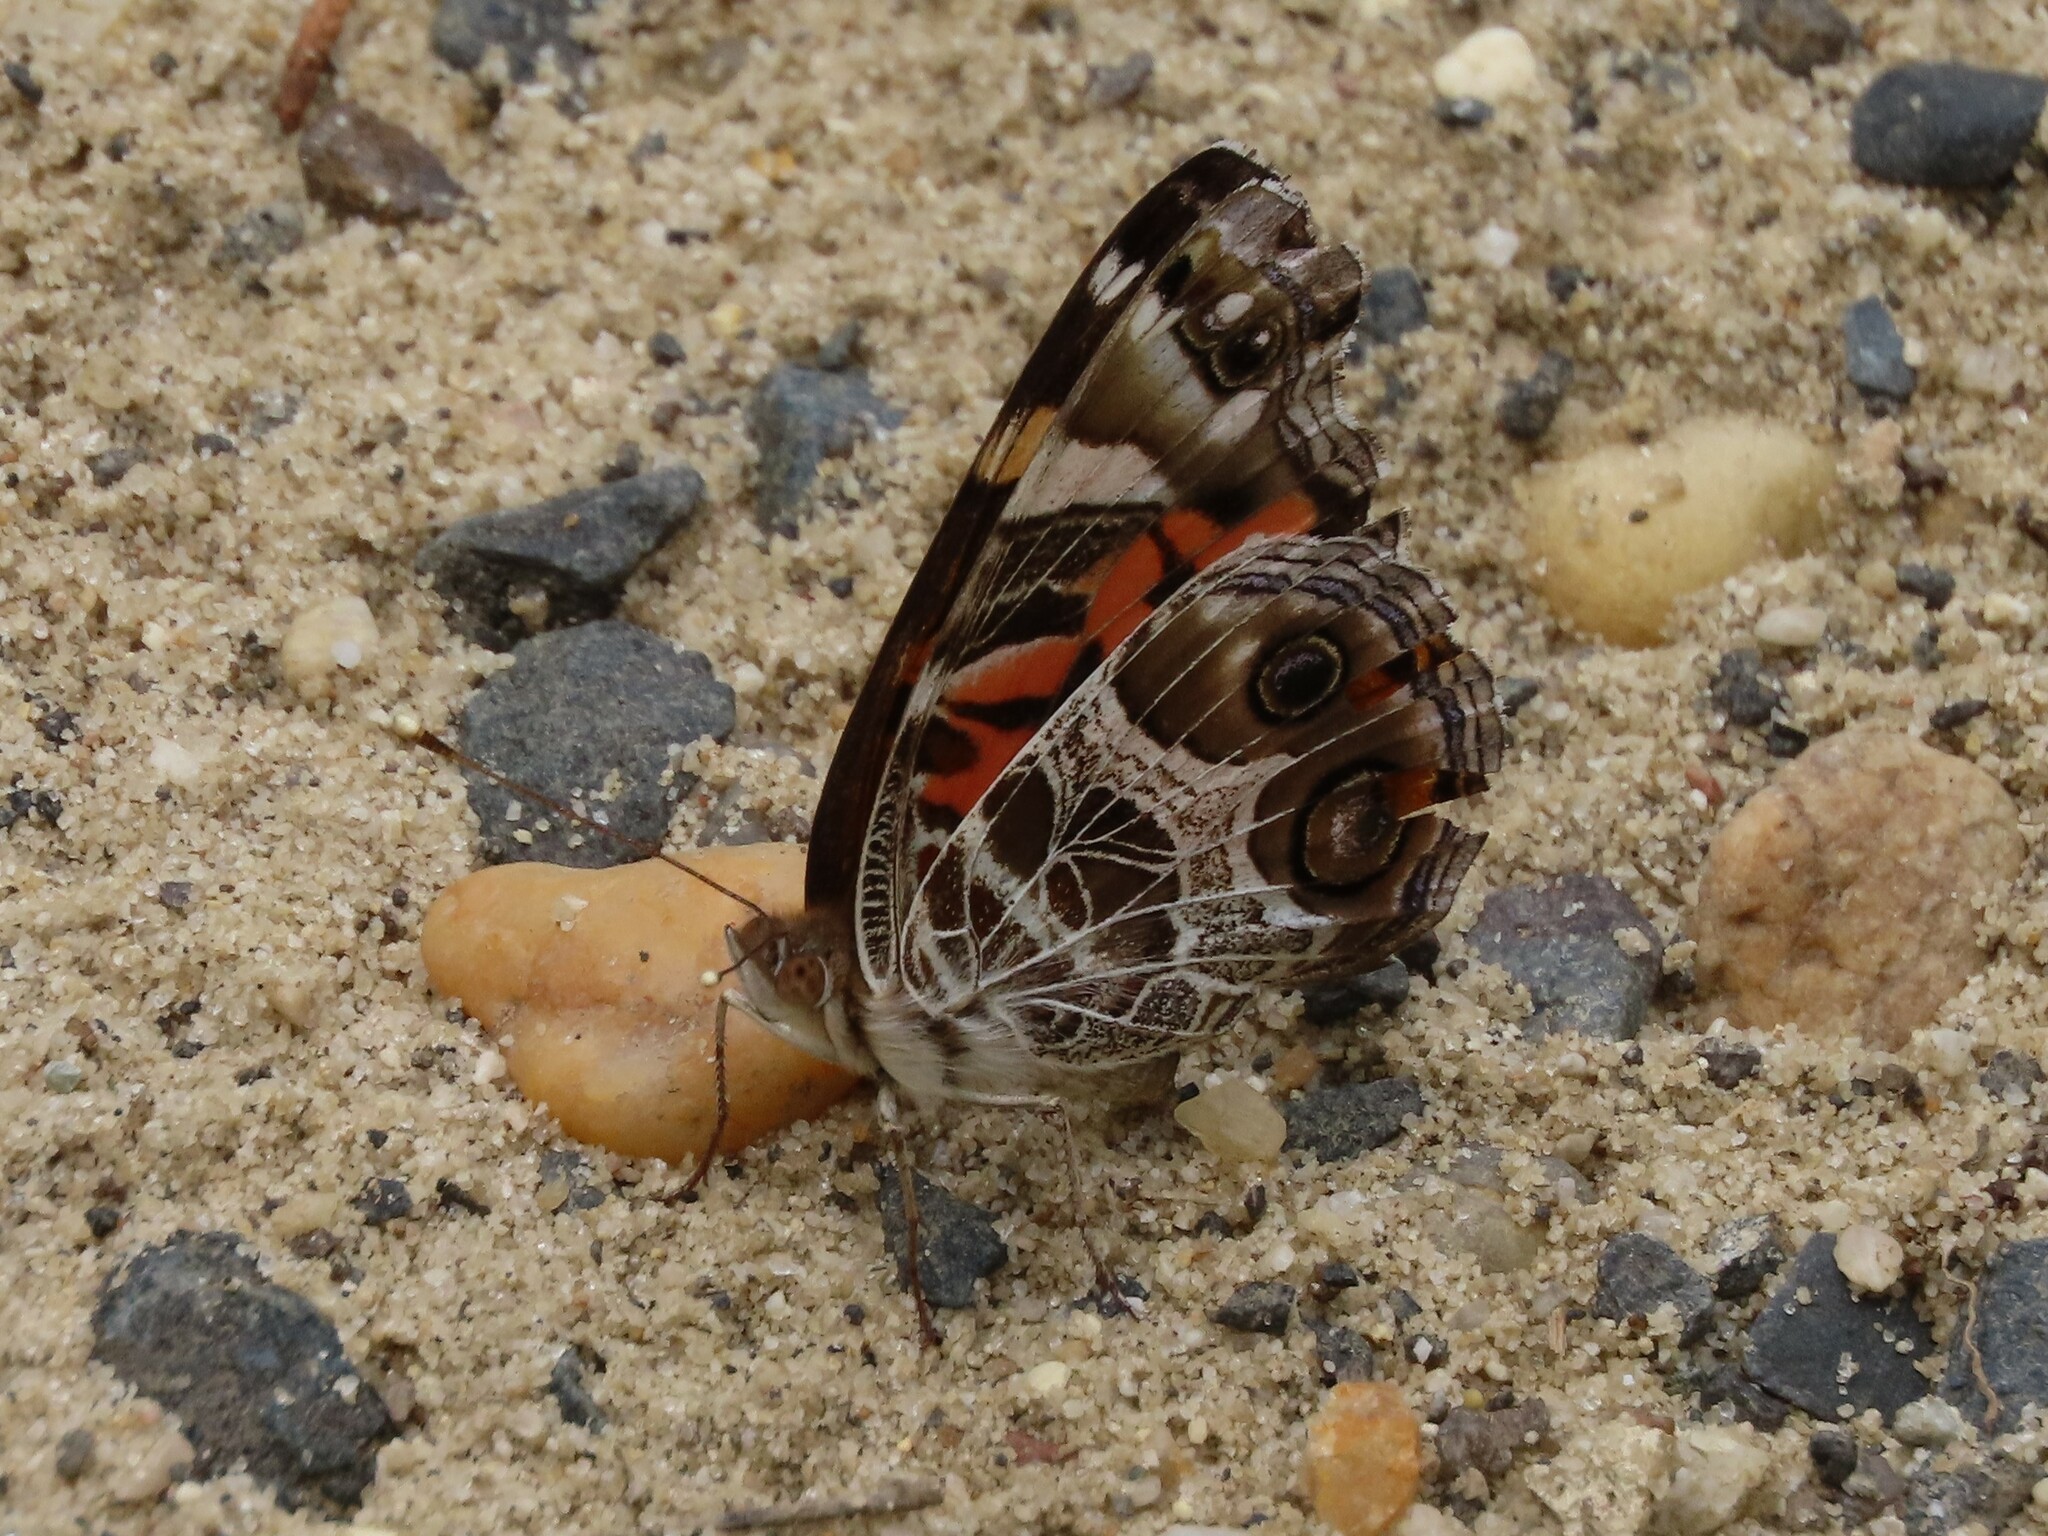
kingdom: Animalia
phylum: Arthropoda
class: Insecta
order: Lepidoptera
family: Nymphalidae
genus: Vanessa
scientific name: Vanessa virginiensis
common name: American lady
